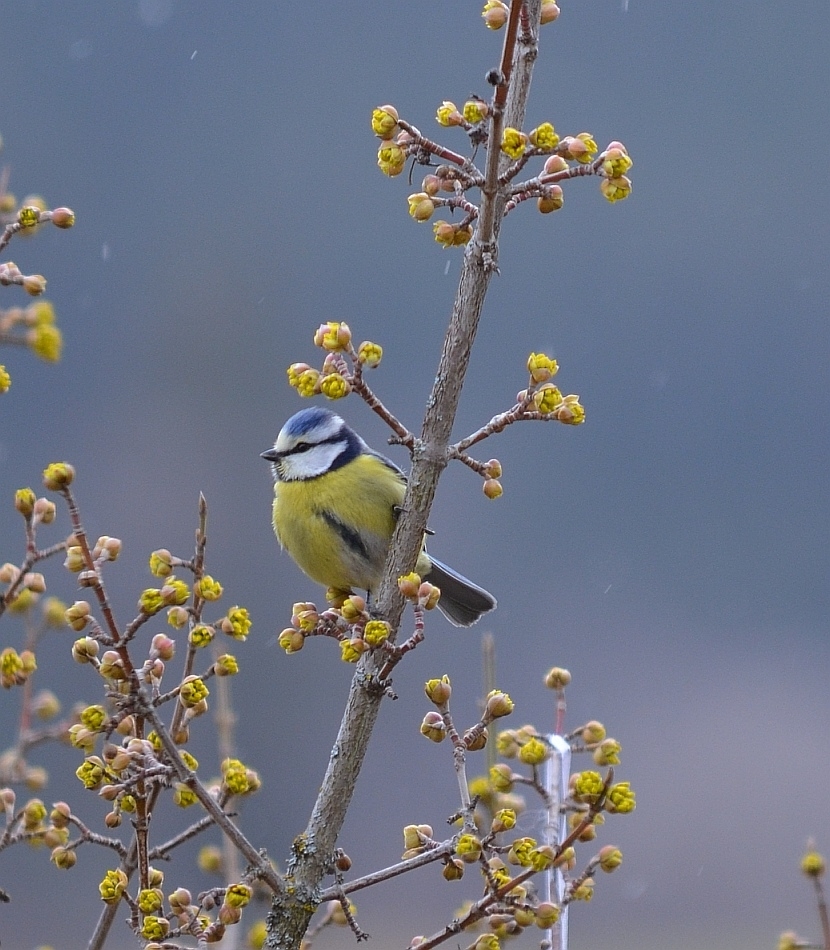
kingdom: Animalia
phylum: Chordata
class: Aves
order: Passeriformes
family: Paridae
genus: Cyanistes
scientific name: Cyanistes caeruleus
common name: Eurasian blue tit
